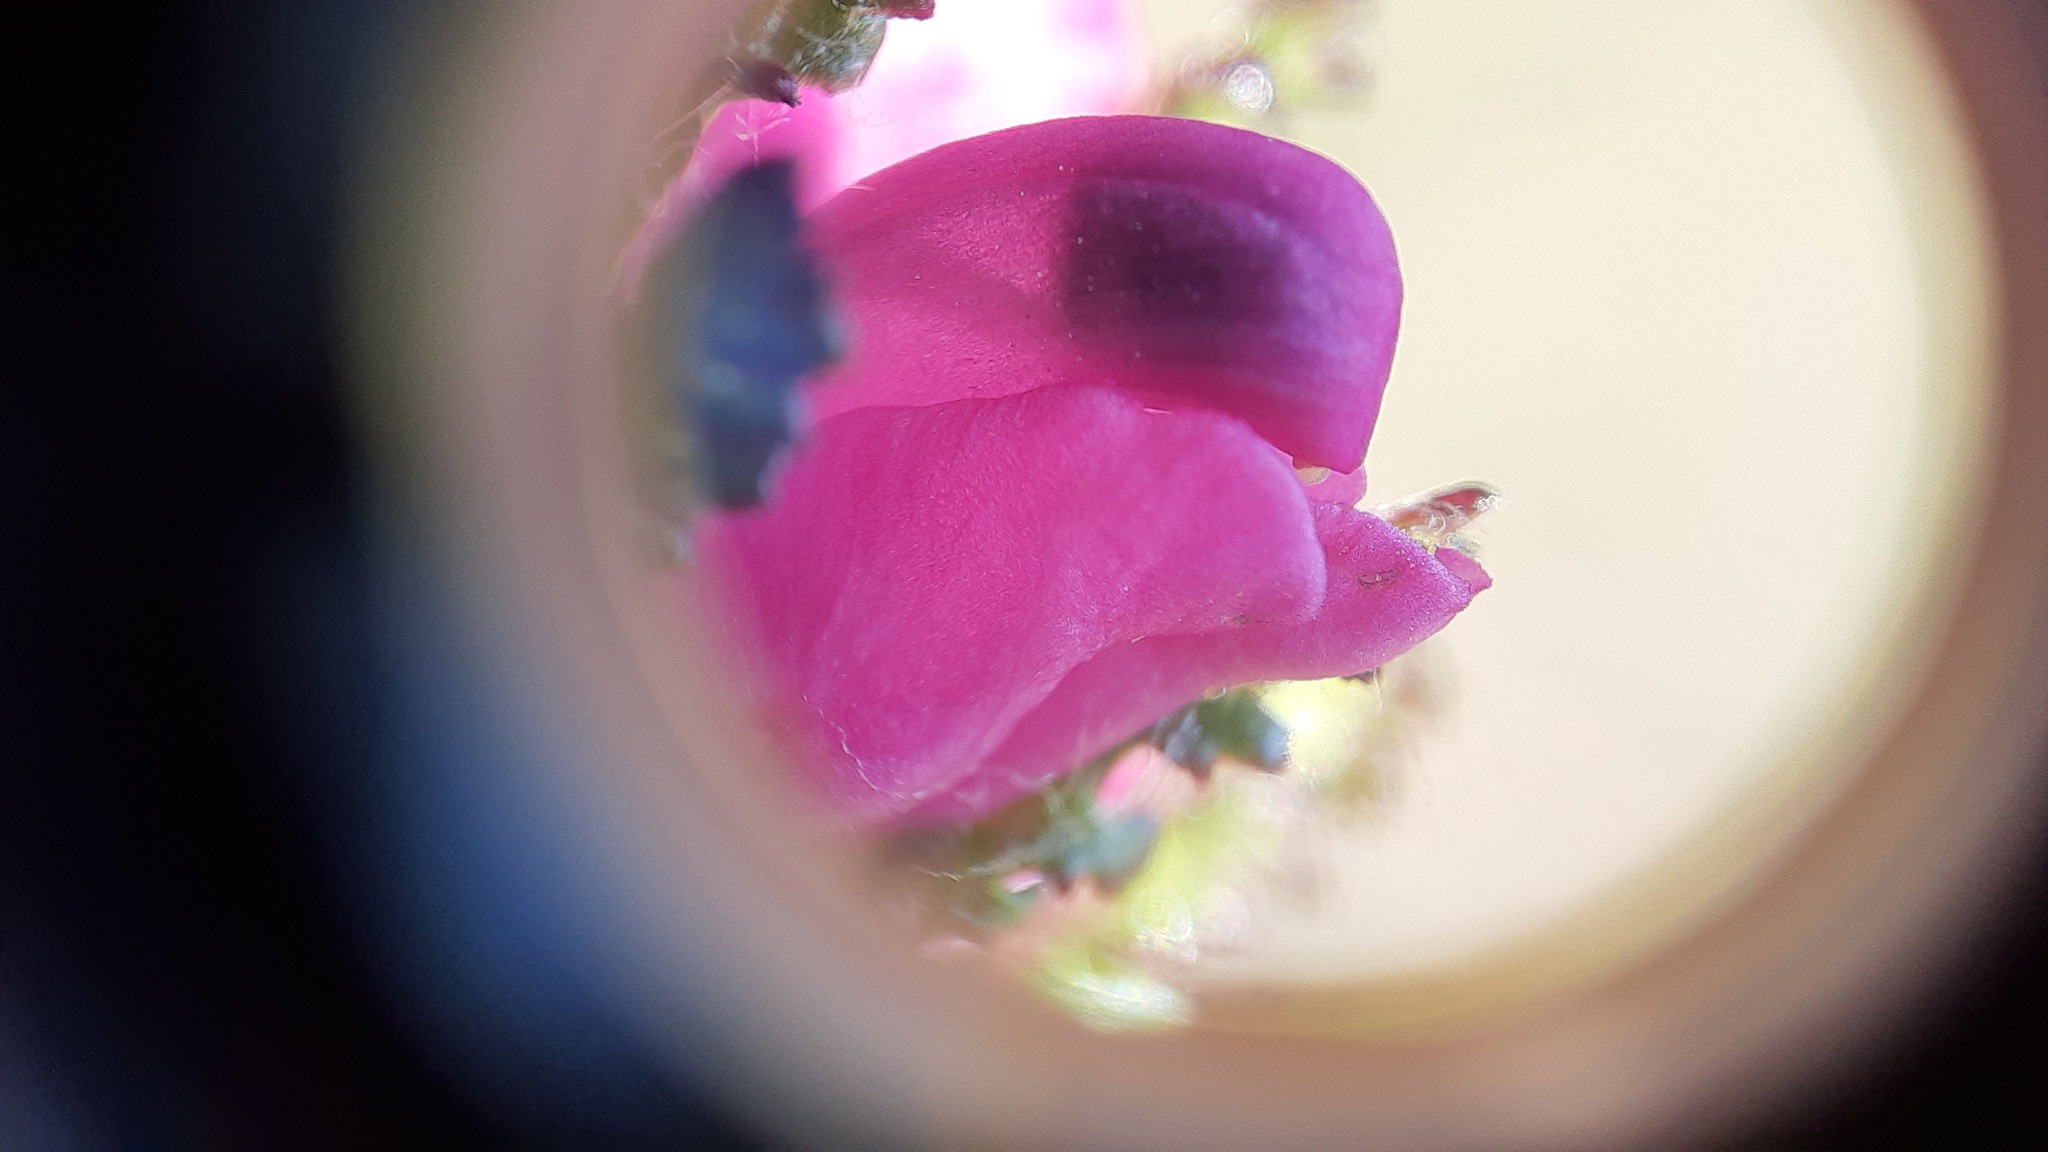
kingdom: Plantae
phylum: Tracheophyta
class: Magnoliopsida
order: Lamiales
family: Orobanchaceae
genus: Pedicularis
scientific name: Pedicularis lanata
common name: Woolly lousewort
